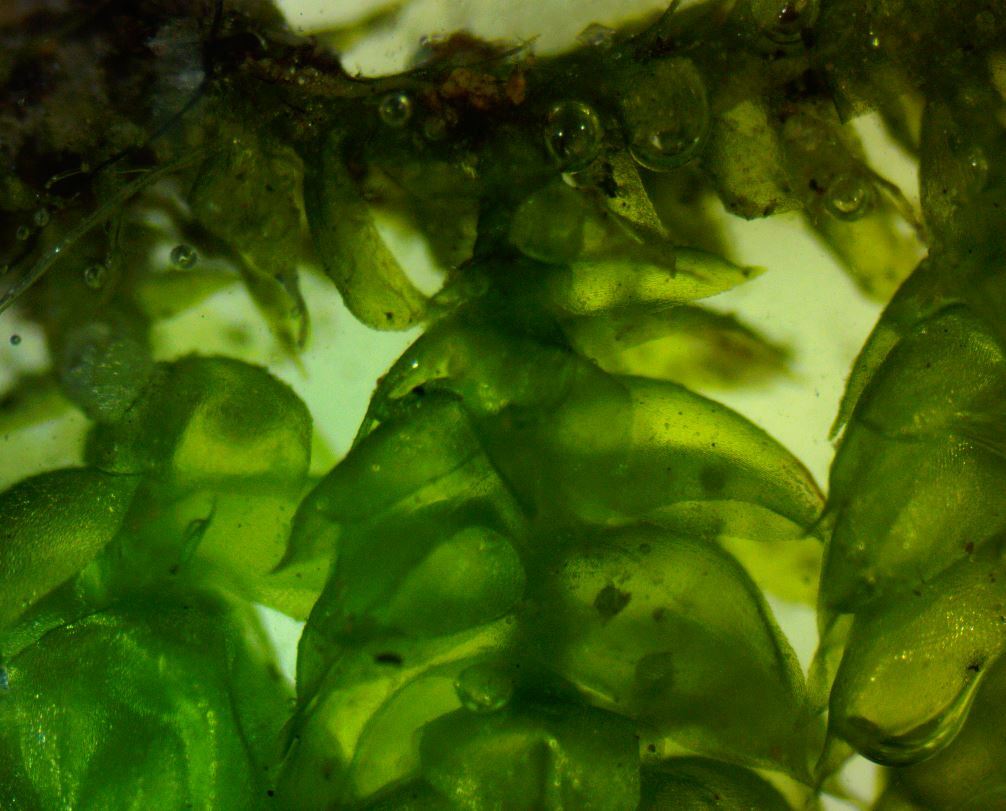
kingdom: Plantae
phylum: Bryophyta
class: Bryopsida
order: Hypnales
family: Brachytheciaceae
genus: Bryoandersonia
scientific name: Bryoandersonia illecebra
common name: Spoon-leaved moss
